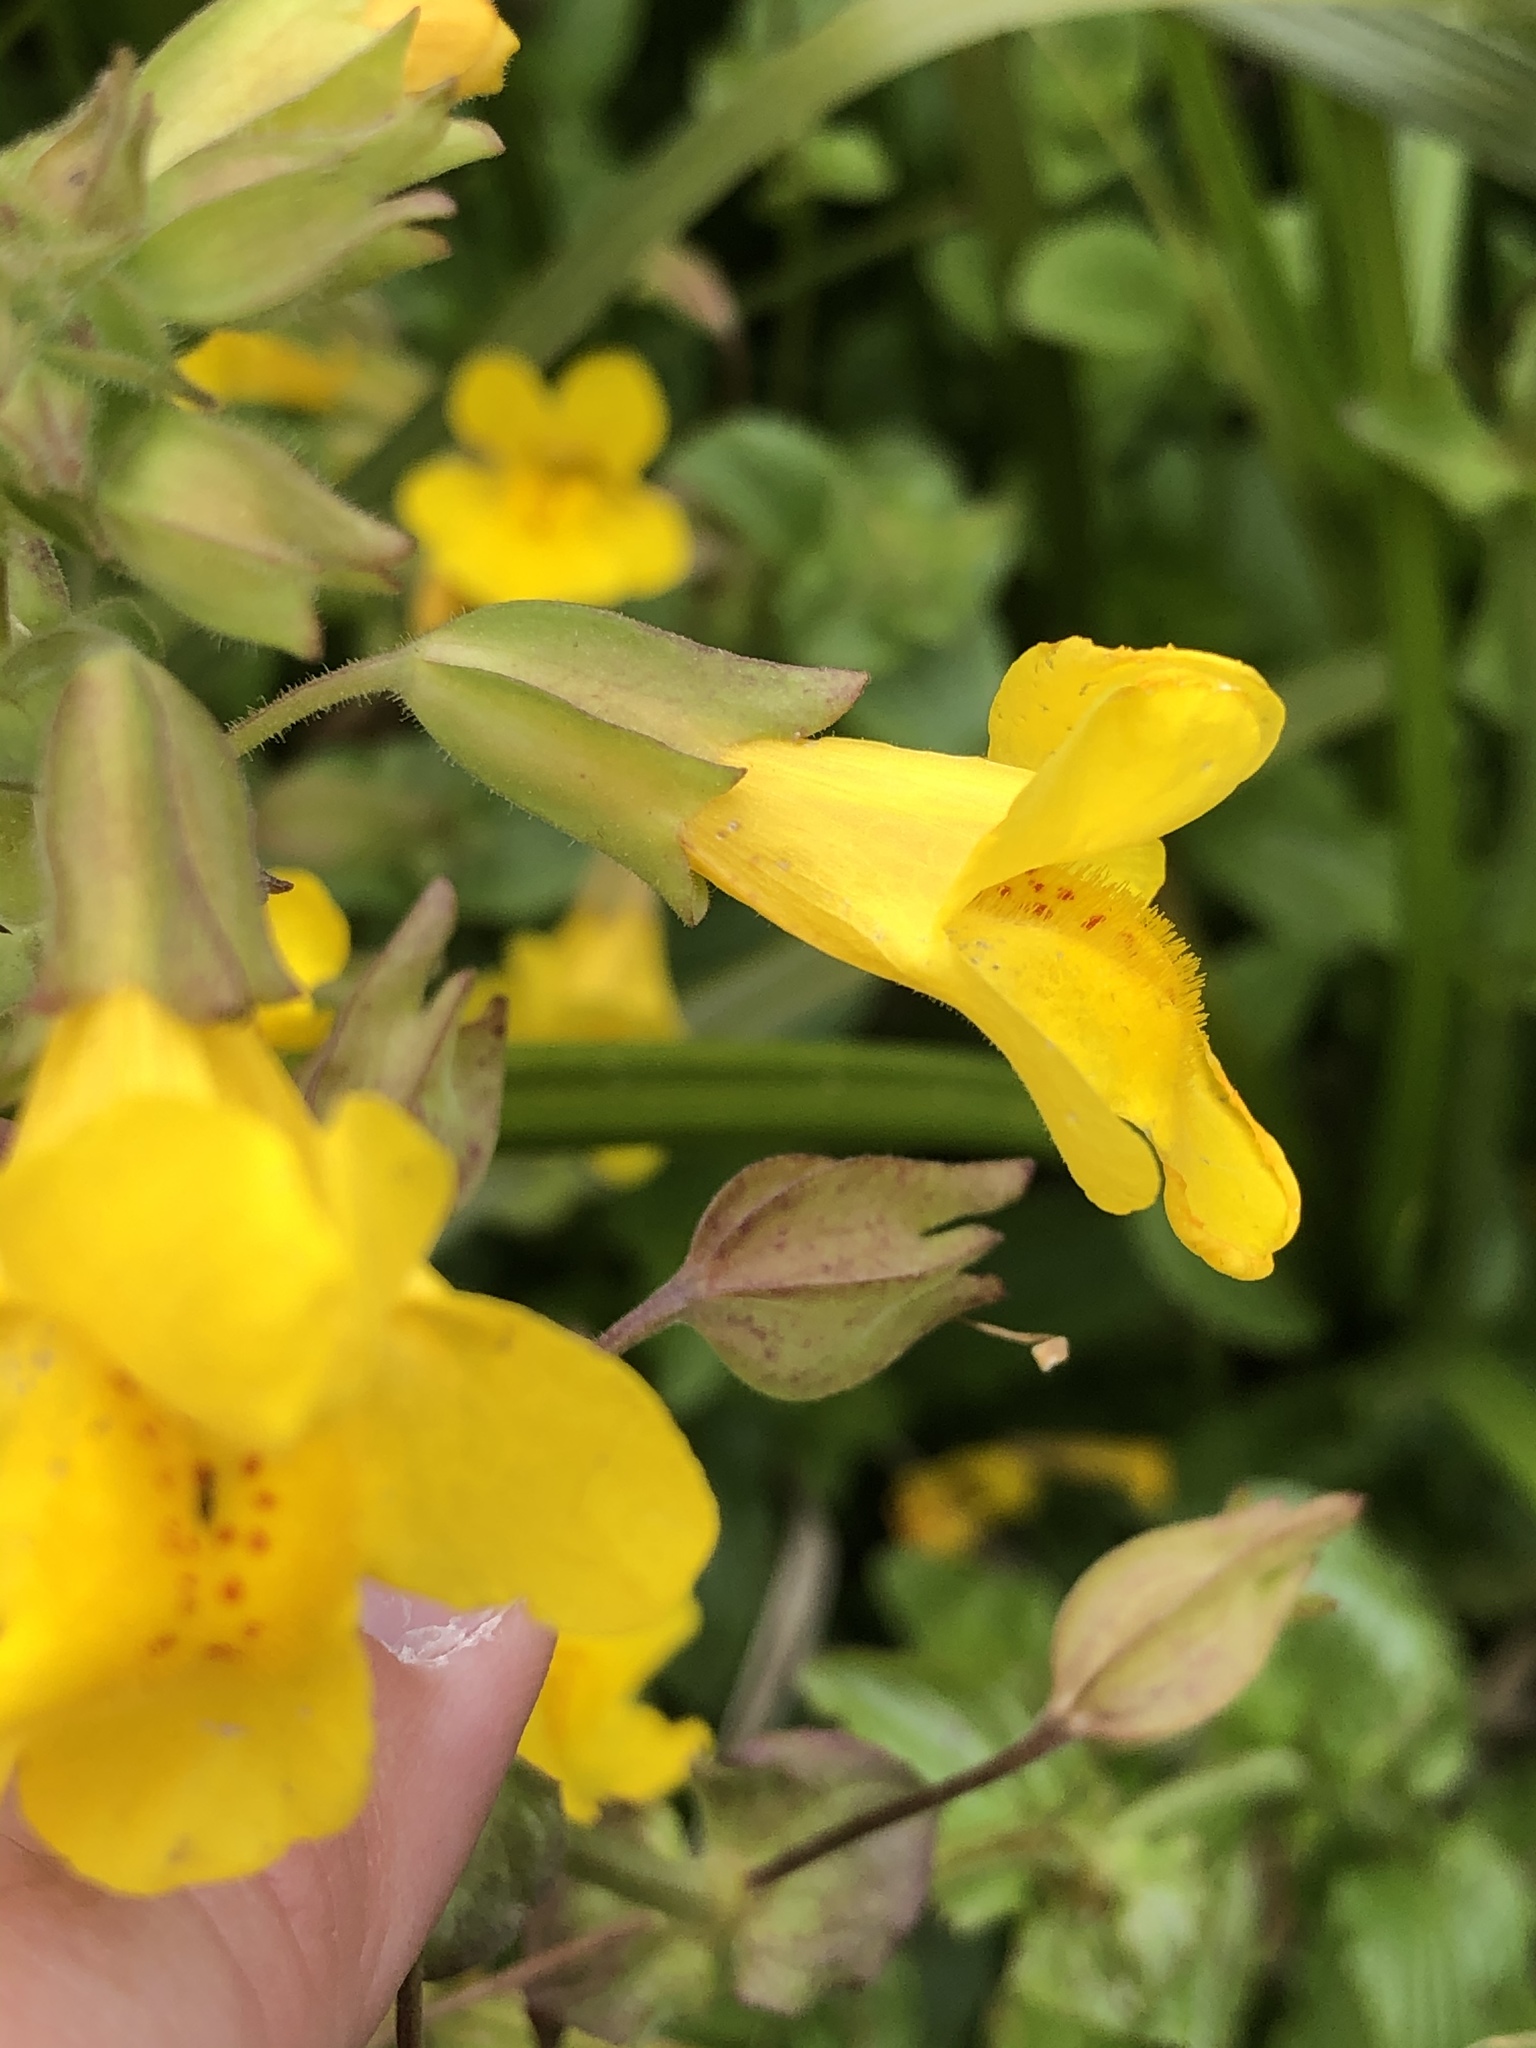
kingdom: Plantae
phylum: Tracheophyta
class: Magnoliopsida
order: Lamiales
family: Phrymaceae
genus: Erythranthe
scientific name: Erythranthe guttata
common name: Monkeyflower
